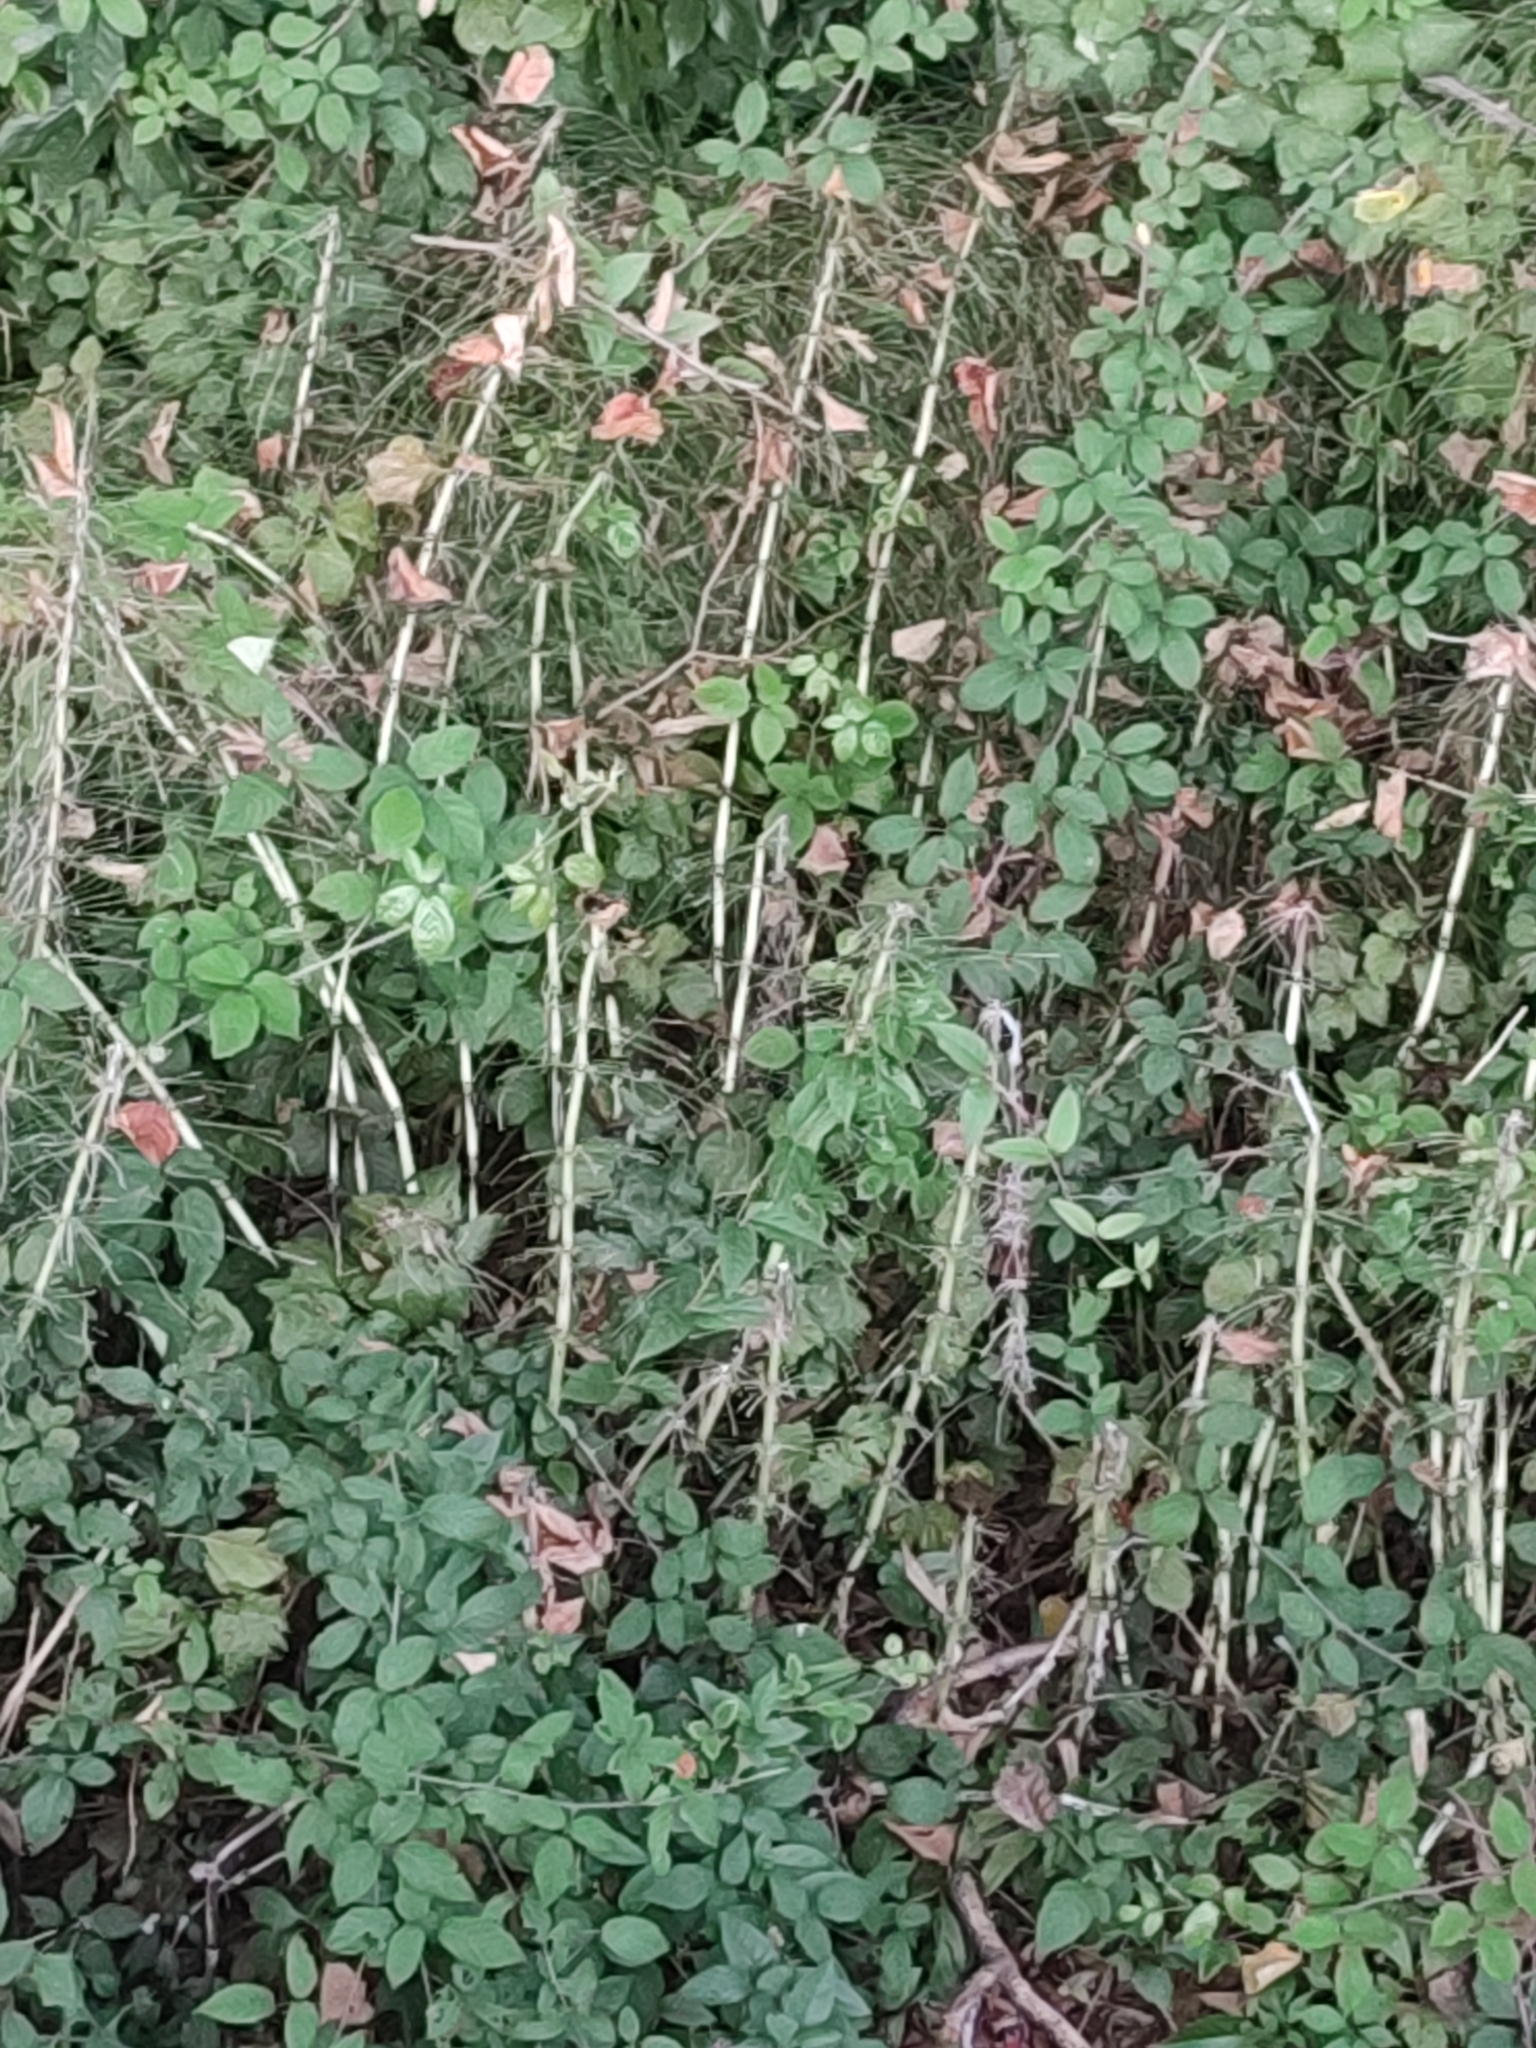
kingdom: Plantae
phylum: Tracheophyta
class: Polypodiopsida
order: Equisetales
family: Equisetaceae
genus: Equisetum
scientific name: Equisetum telmateia
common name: Great horsetail
